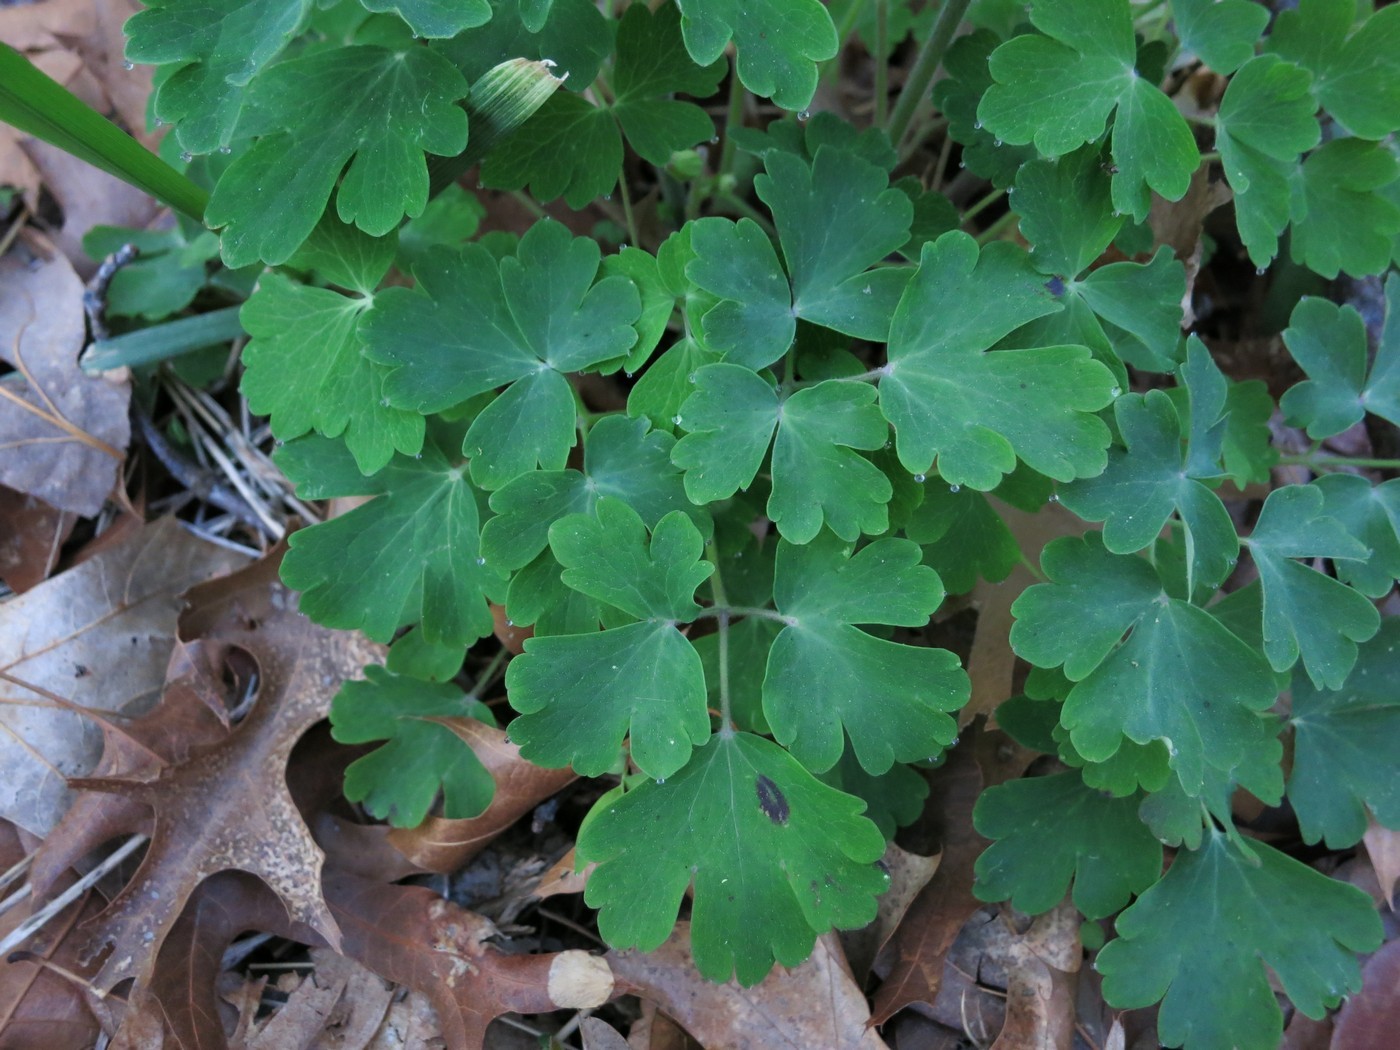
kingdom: Plantae
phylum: Tracheophyta
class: Magnoliopsida
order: Ranunculales
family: Ranunculaceae
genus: Aquilegia
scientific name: Aquilegia vulgaris
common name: Columbine
